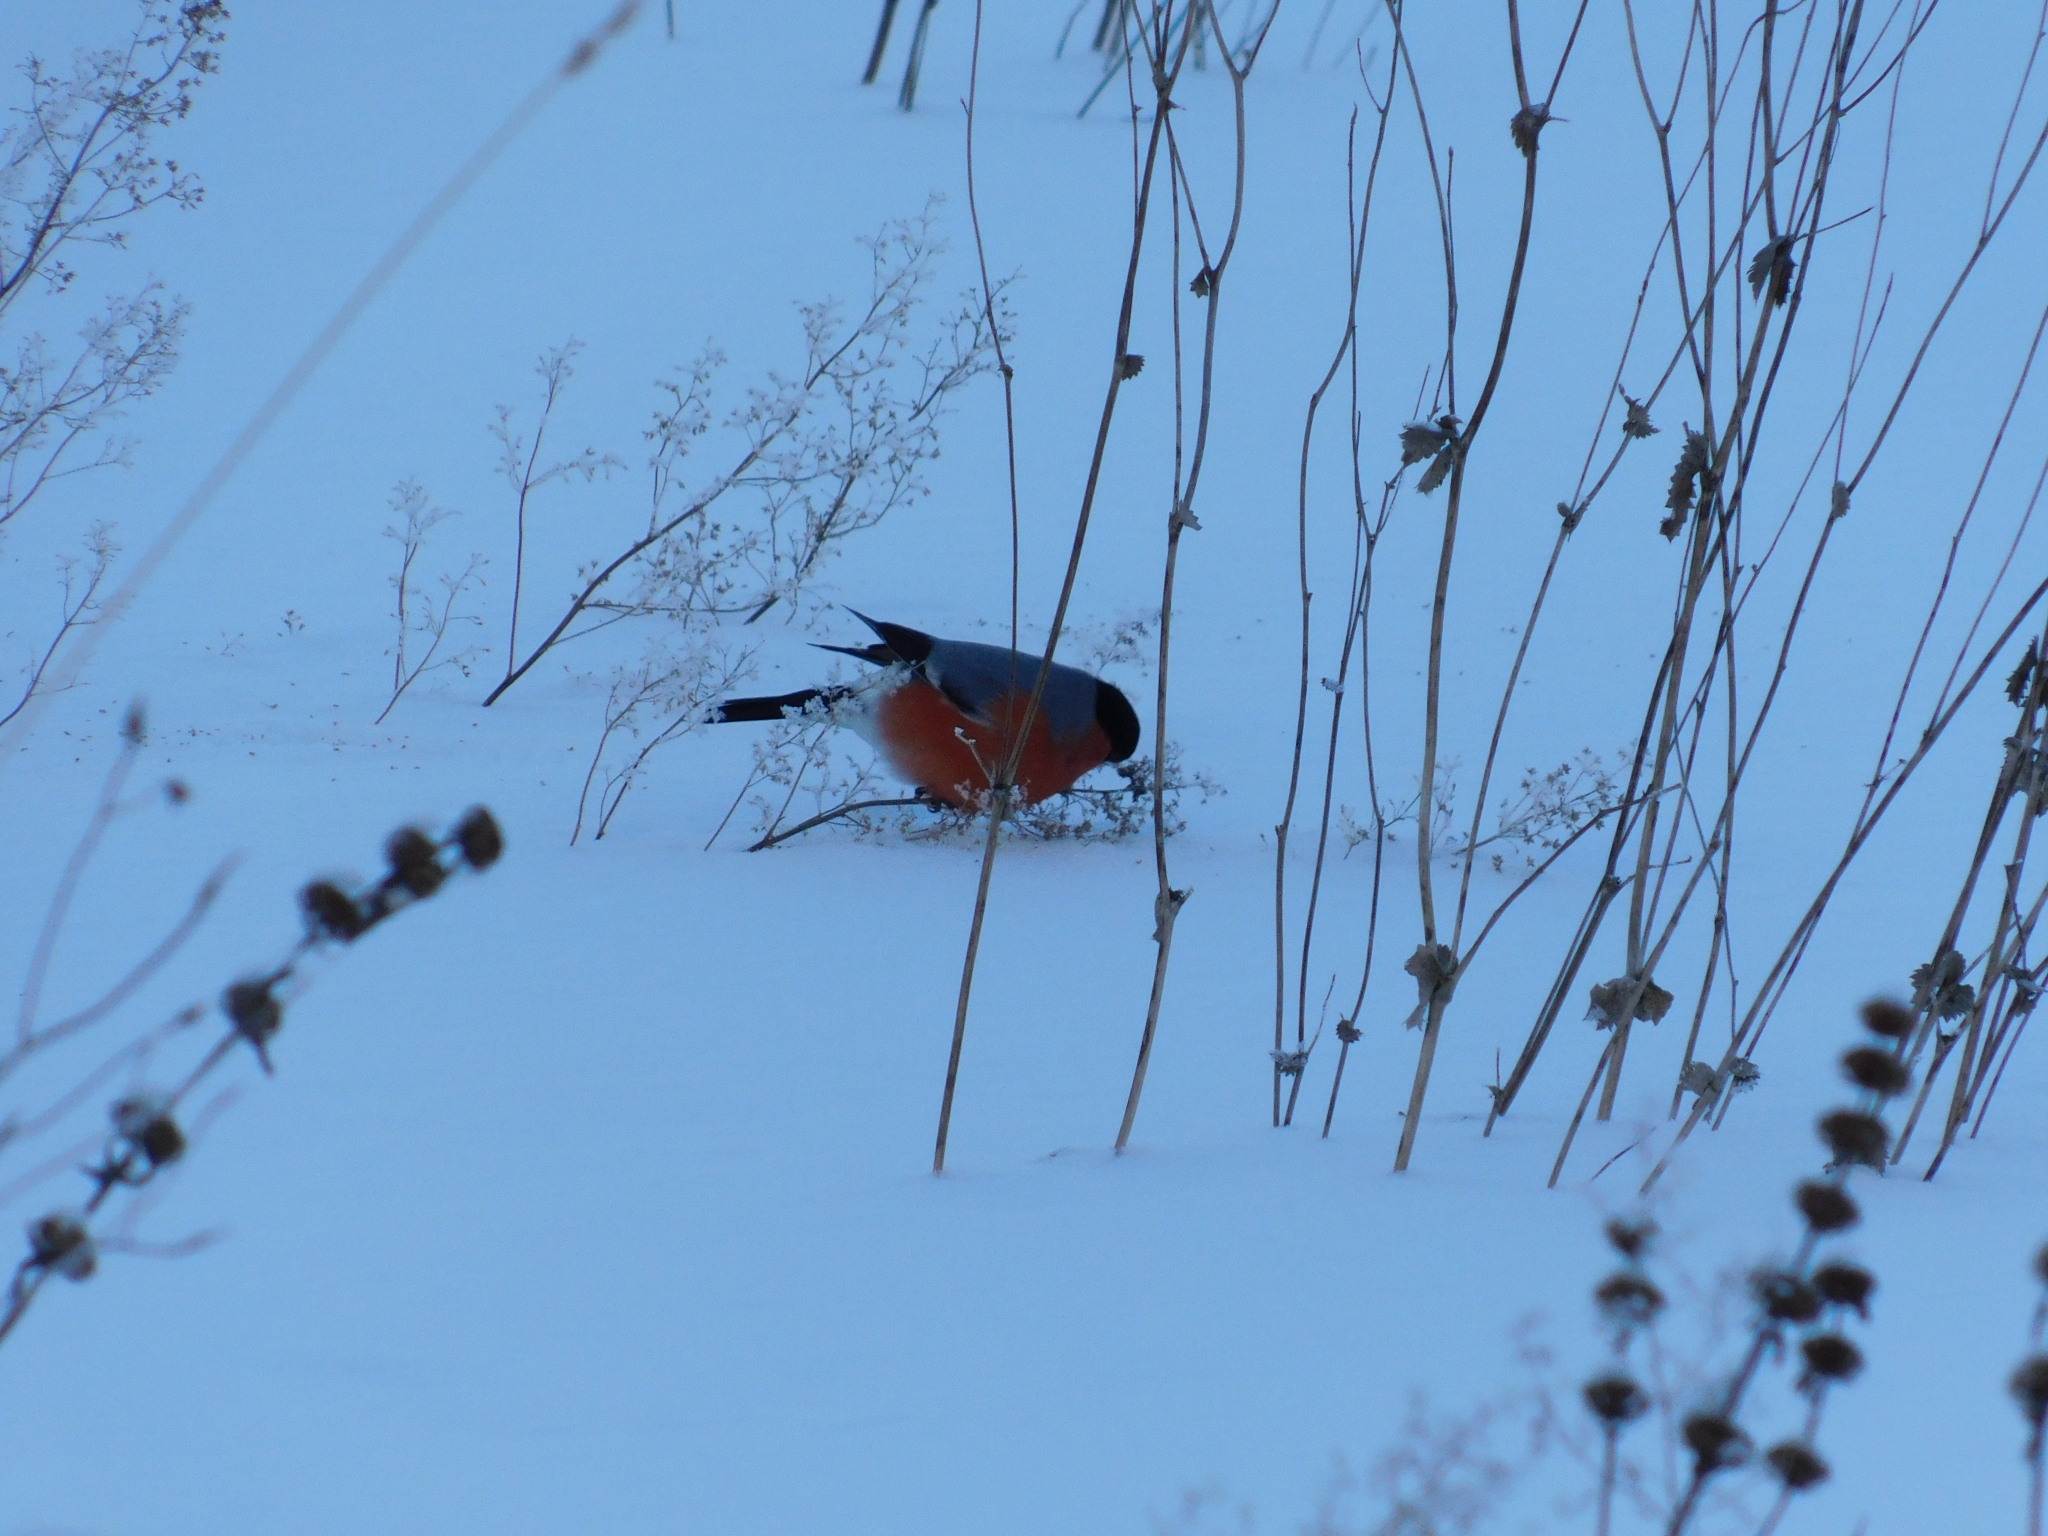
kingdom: Animalia
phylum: Chordata
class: Aves
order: Passeriformes
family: Fringillidae
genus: Pyrrhula
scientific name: Pyrrhula pyrrhula
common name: Eurasian bullfinch
